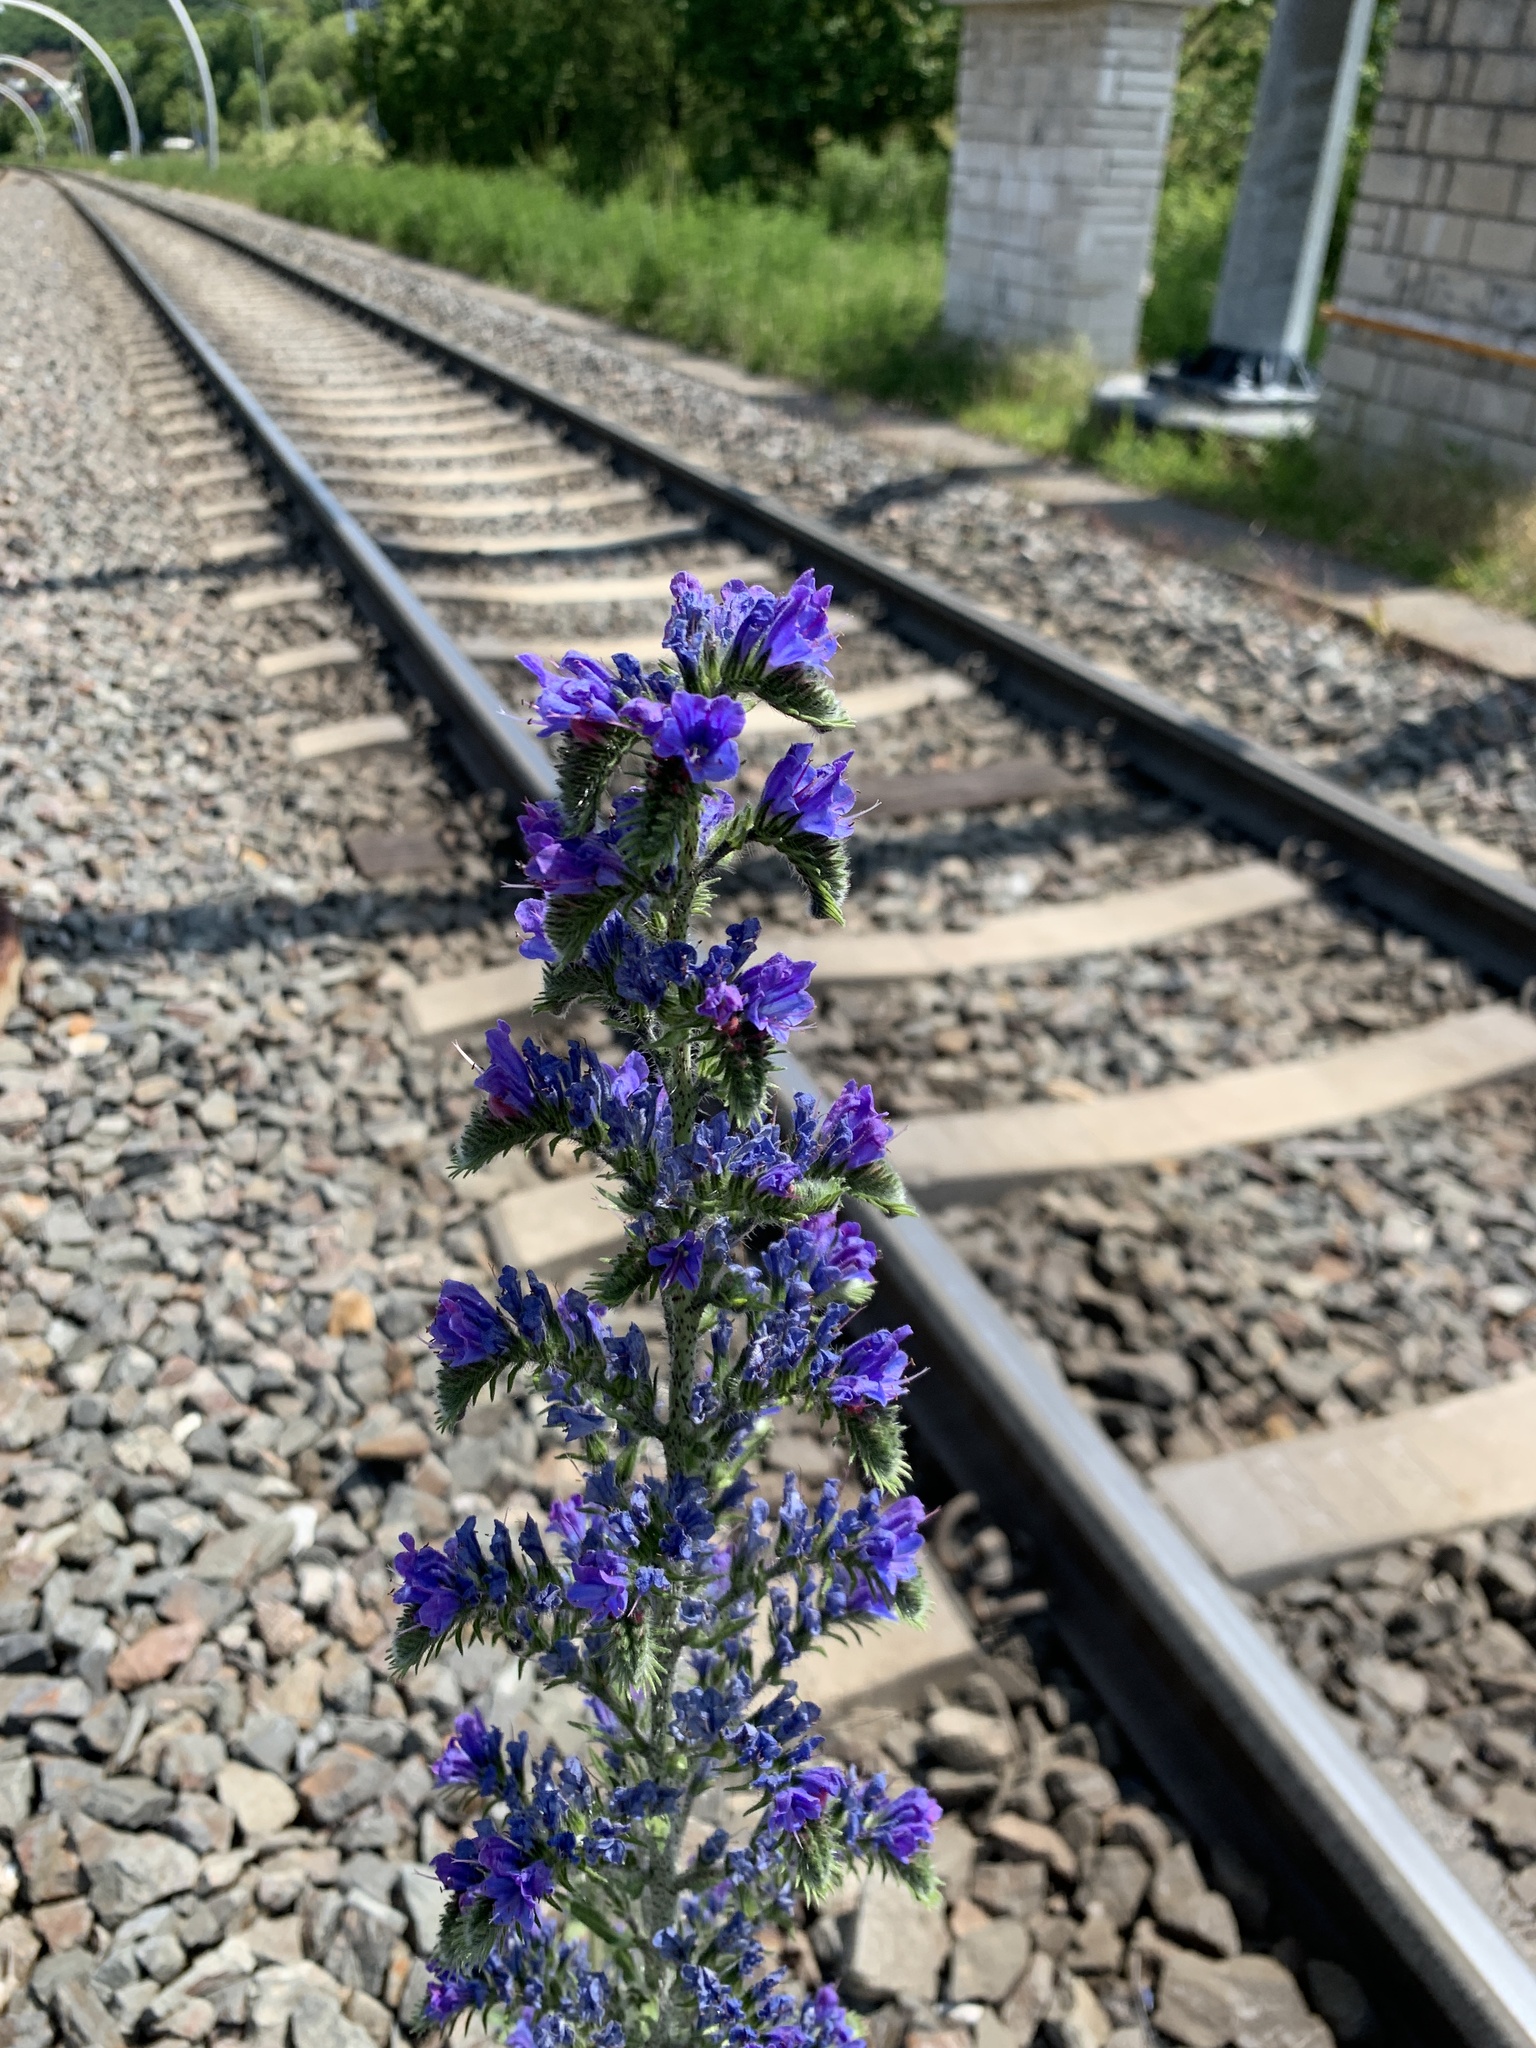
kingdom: Plantae
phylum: Tracheophyta
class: Magnoliopsida
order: Boraginales
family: Boraginaceae
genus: Echium
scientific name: Echium vulgare
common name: Common viper's bugloss
